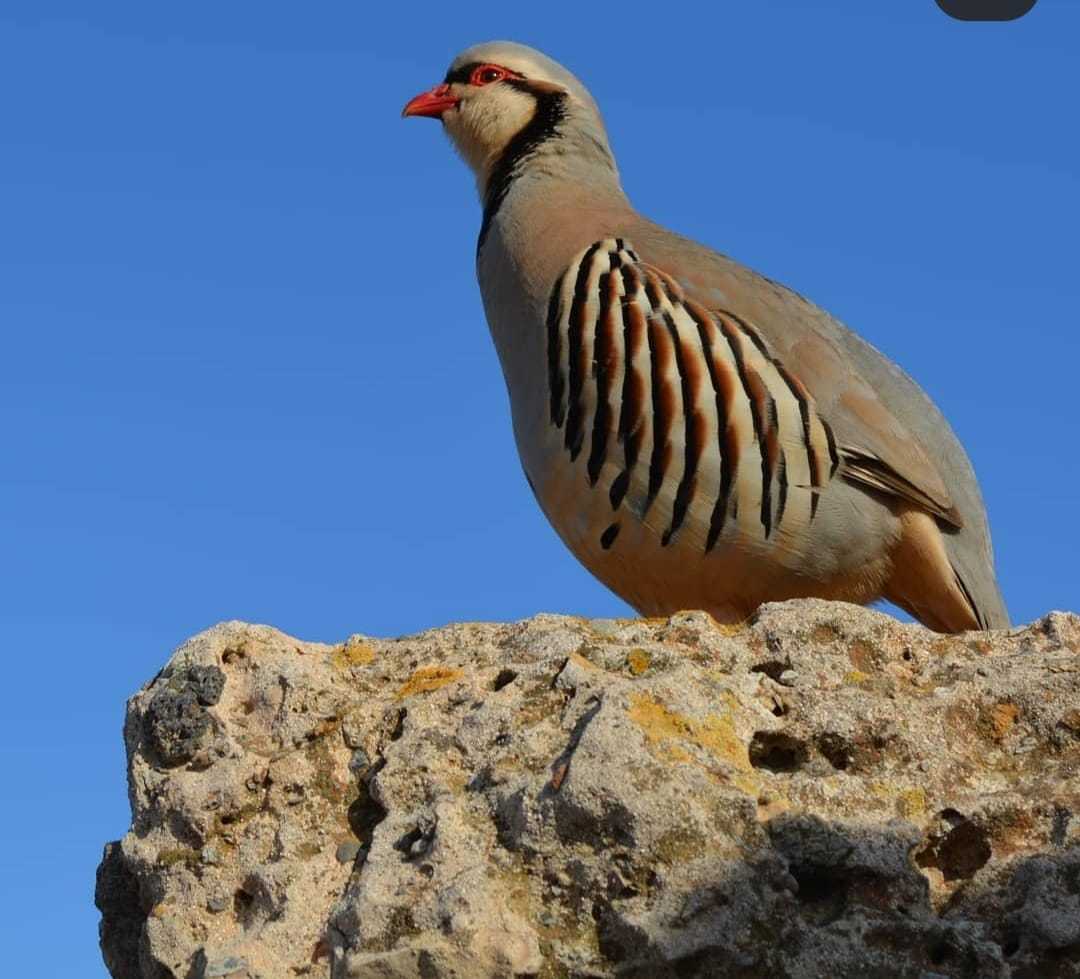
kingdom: Animalia
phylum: Chordata
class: Aves
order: Galliformes
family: Phasianidae
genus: Alectoris
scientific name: Alectoris chukar
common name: Chukar
